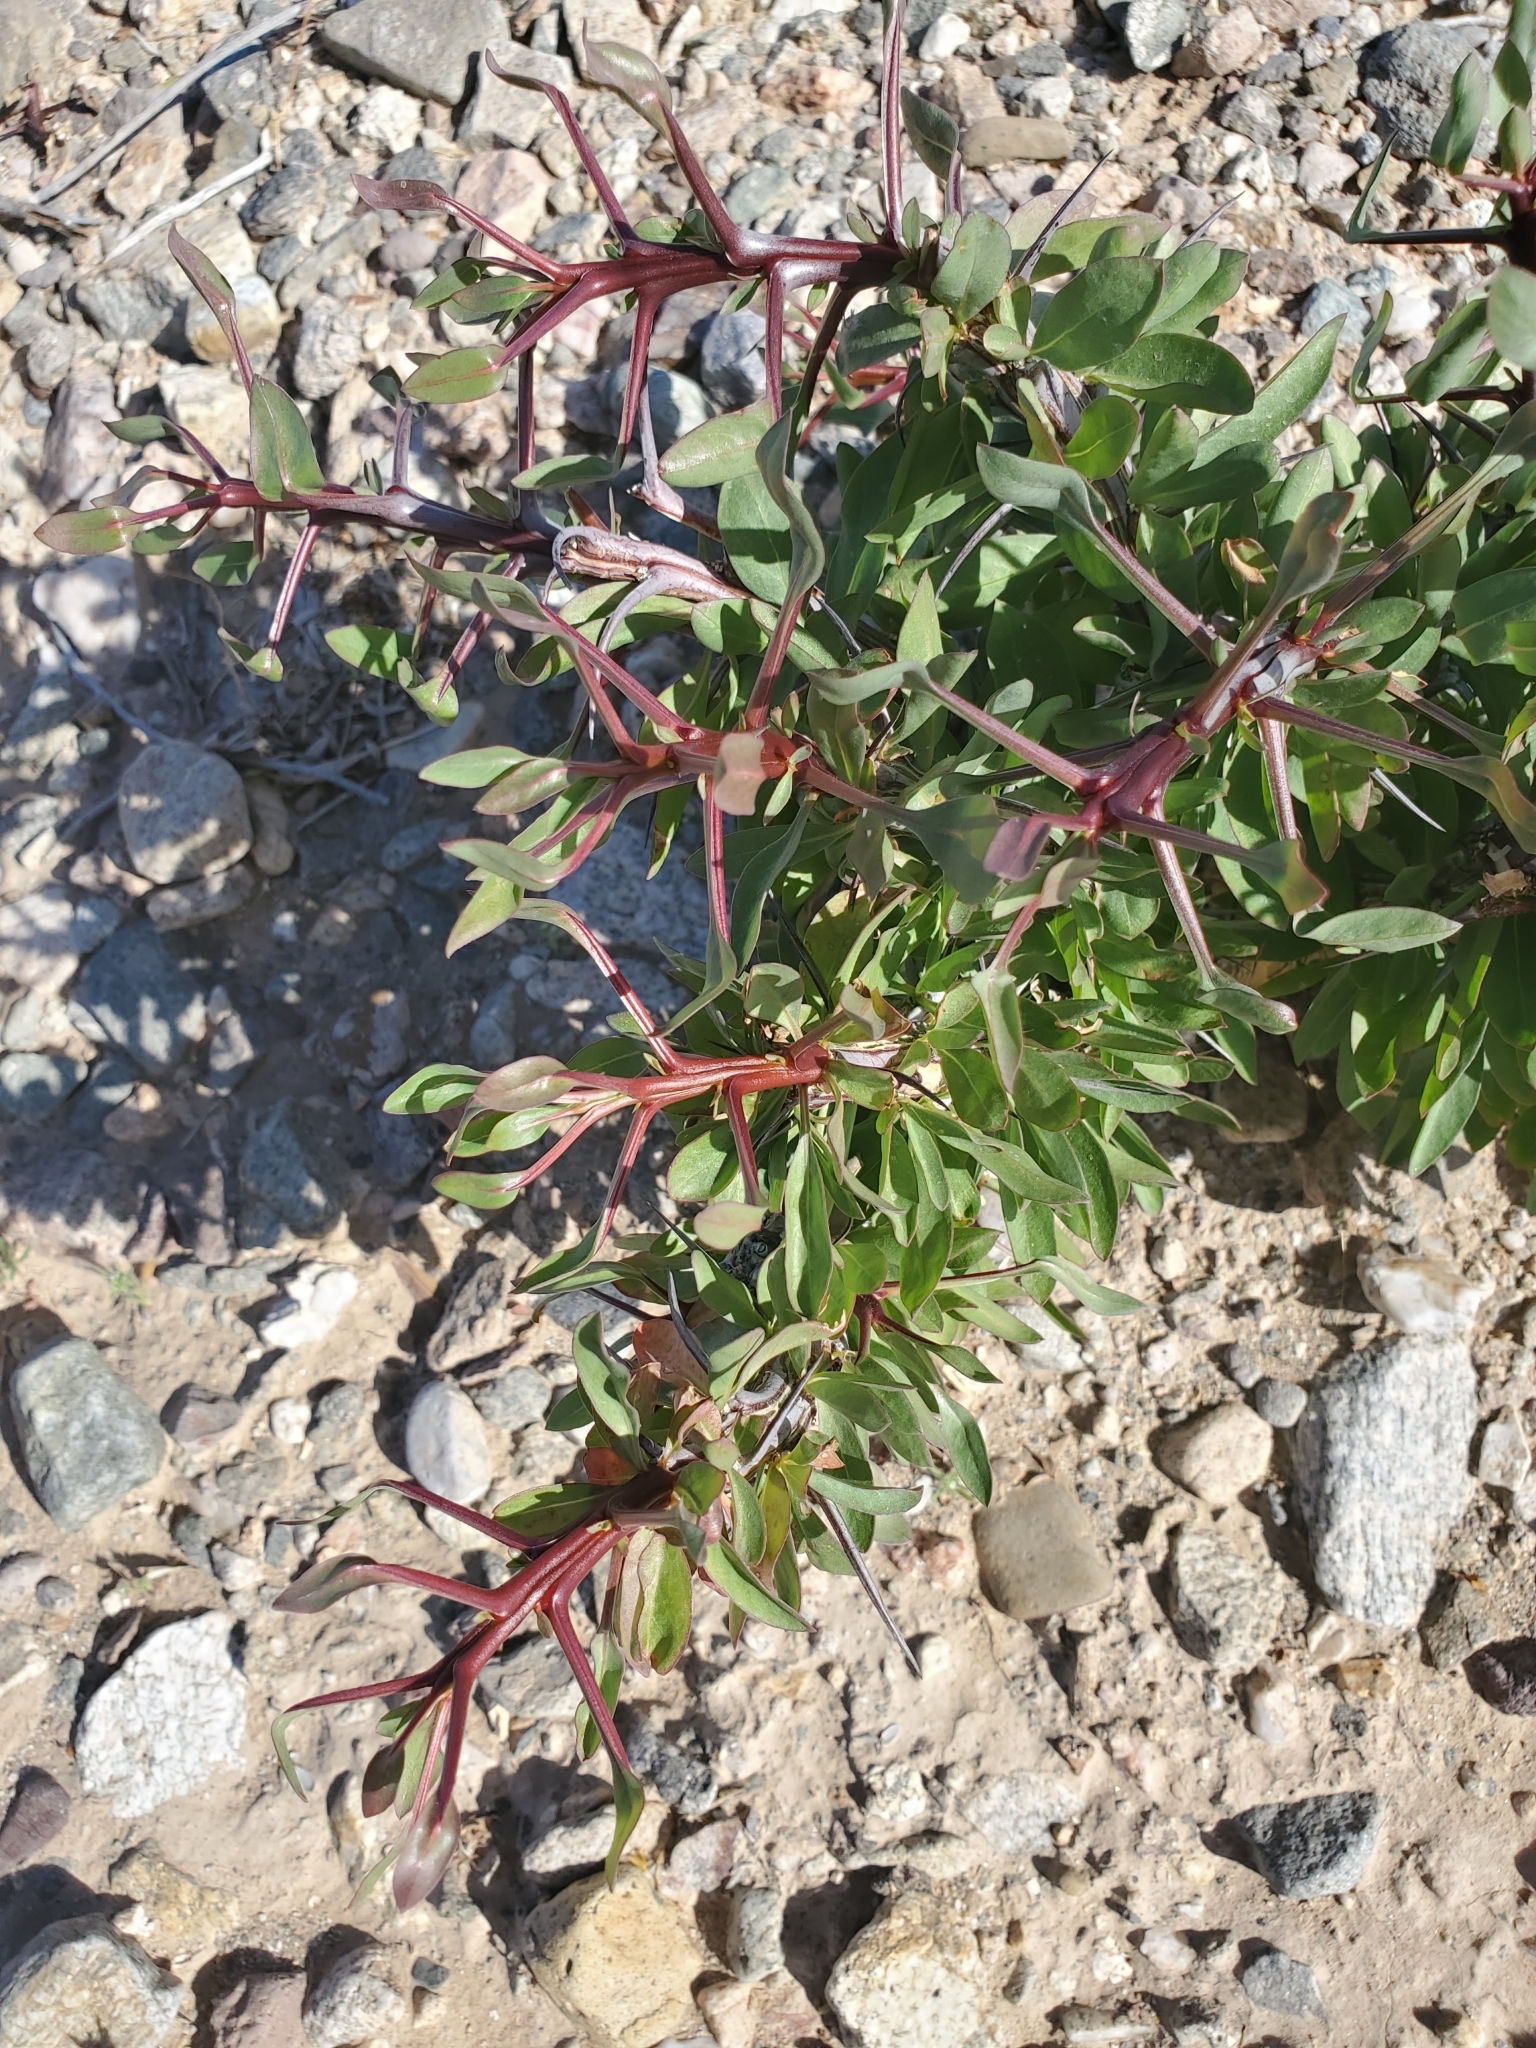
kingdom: Plantae
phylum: Tracheophyta
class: Magnoliopsida
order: Ericales
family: Fouquieriaceae
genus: Fouquieria
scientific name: Fouquieria splendens
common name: Vine-cactus
